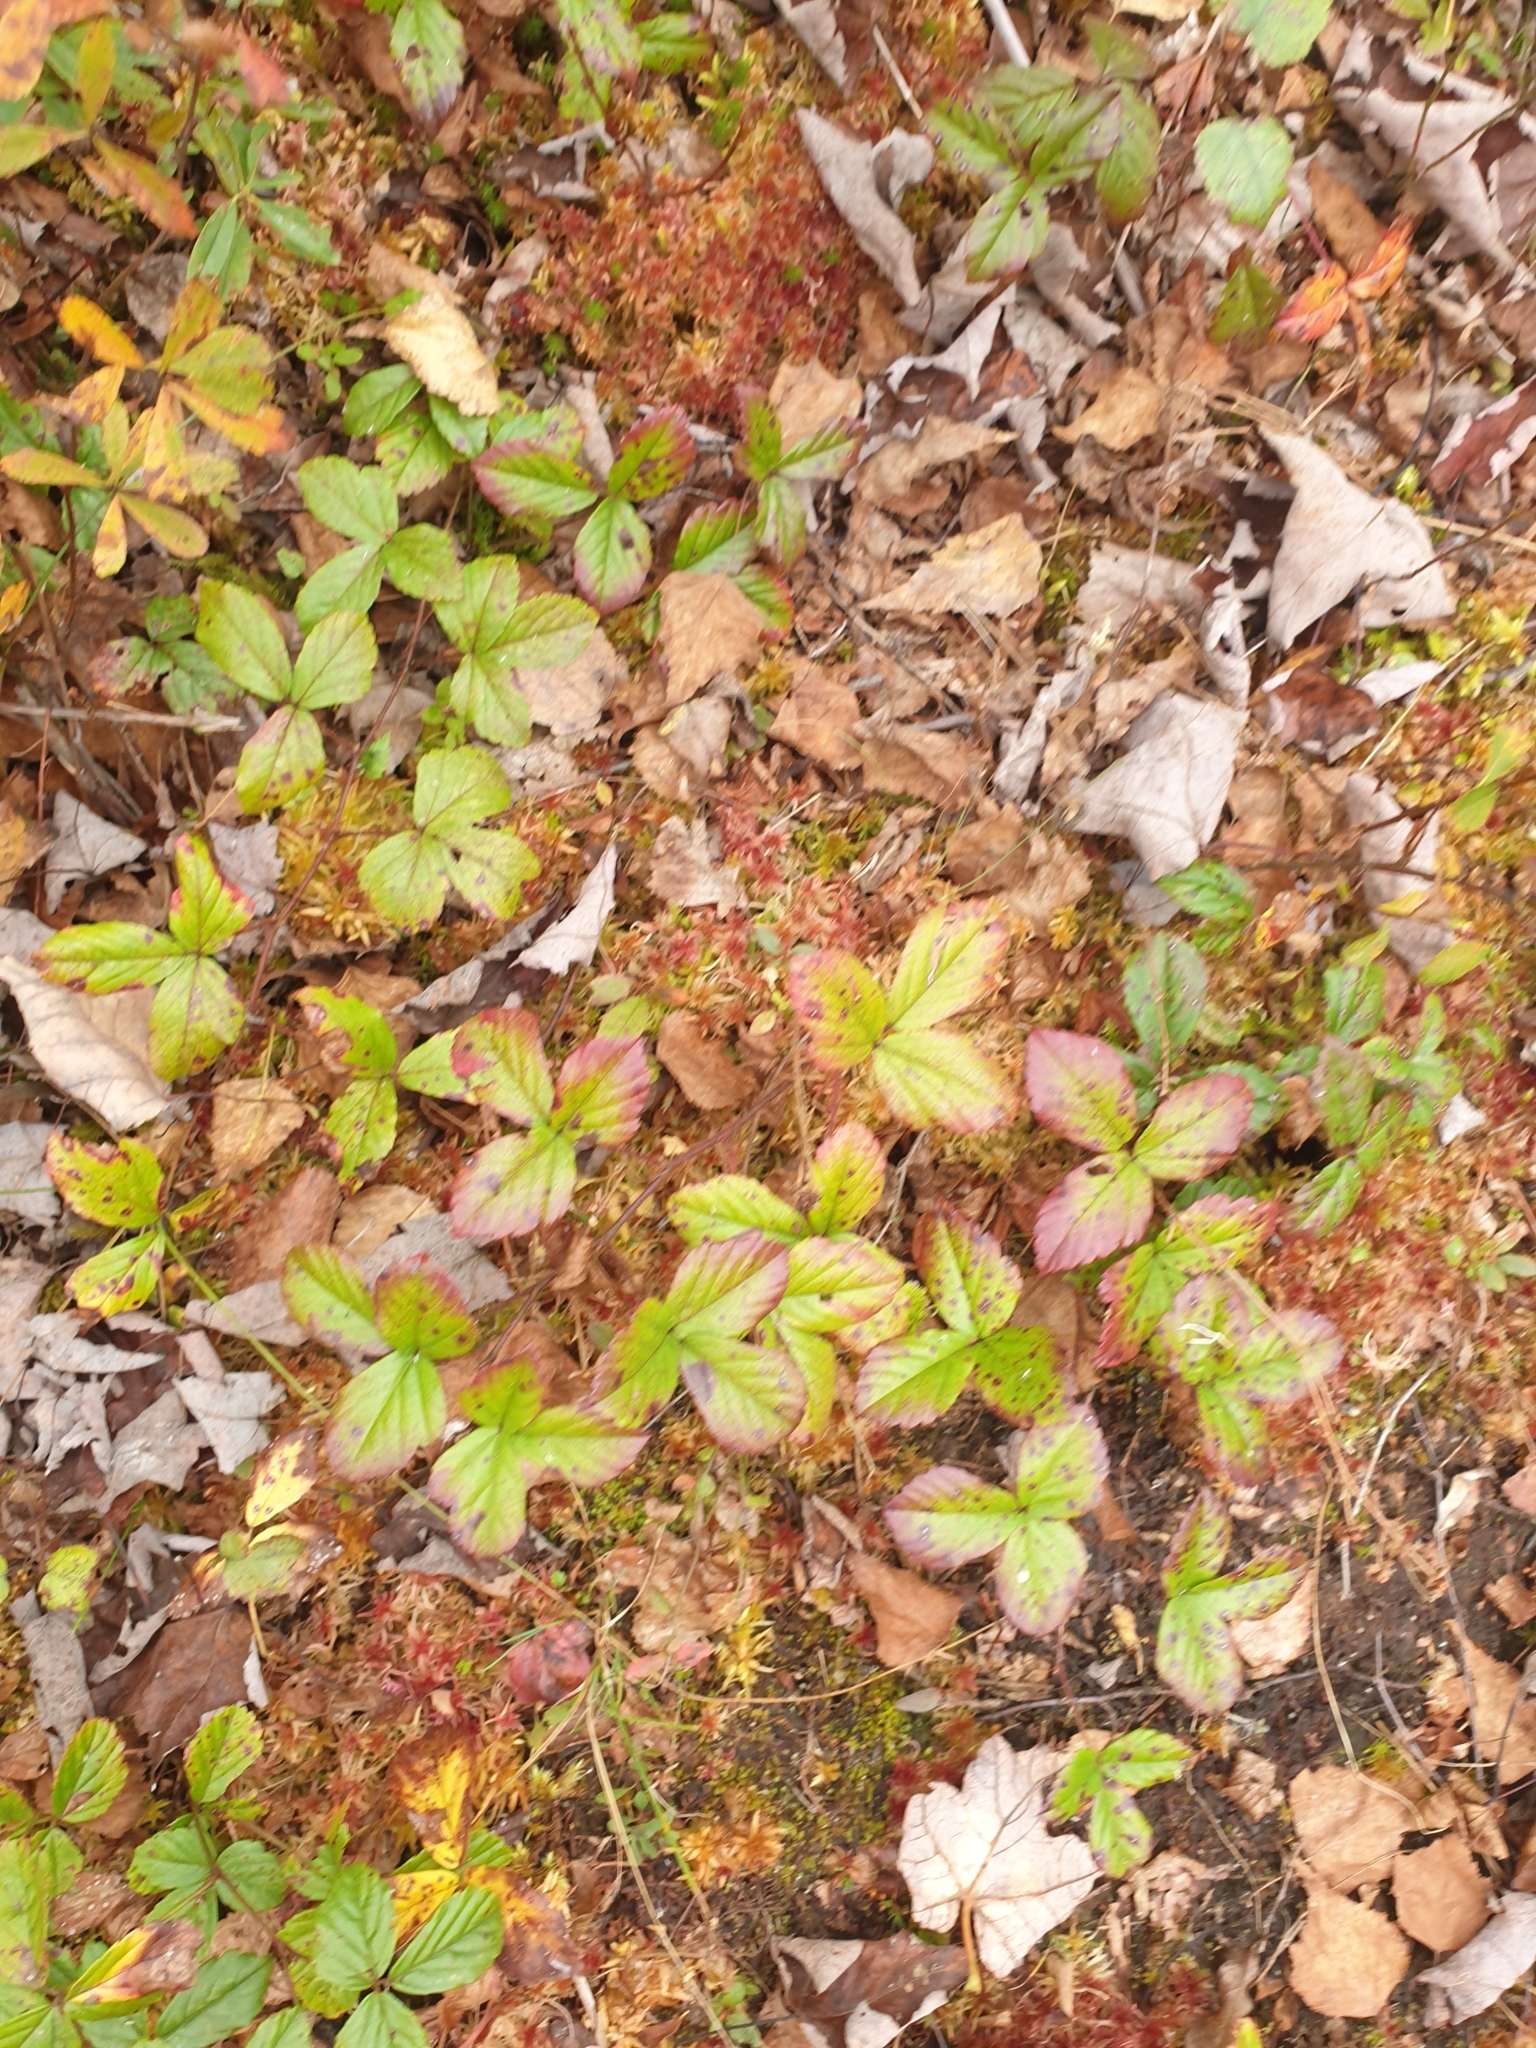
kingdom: Plantae
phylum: Tracheophyta
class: Magnoliopsida
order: Rosales
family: Rosaceae
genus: Rubus
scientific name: Rubus hispidus
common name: Running blackberry
